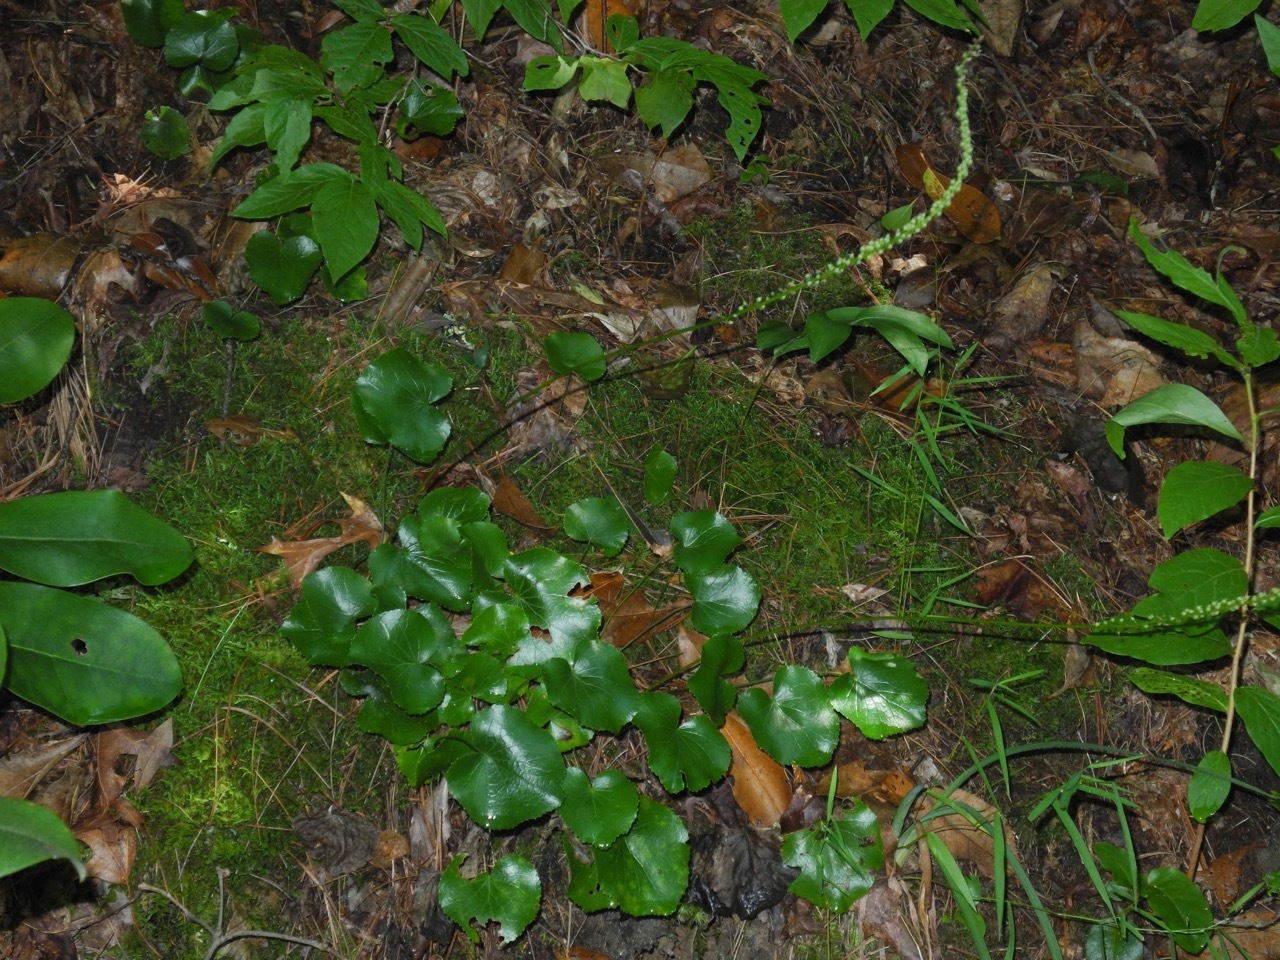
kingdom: Plantae
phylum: Tracheophyta
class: Magnoliopsida
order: Ericales
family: Diapensiaceae
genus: Galax
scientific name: Galax urceolata
